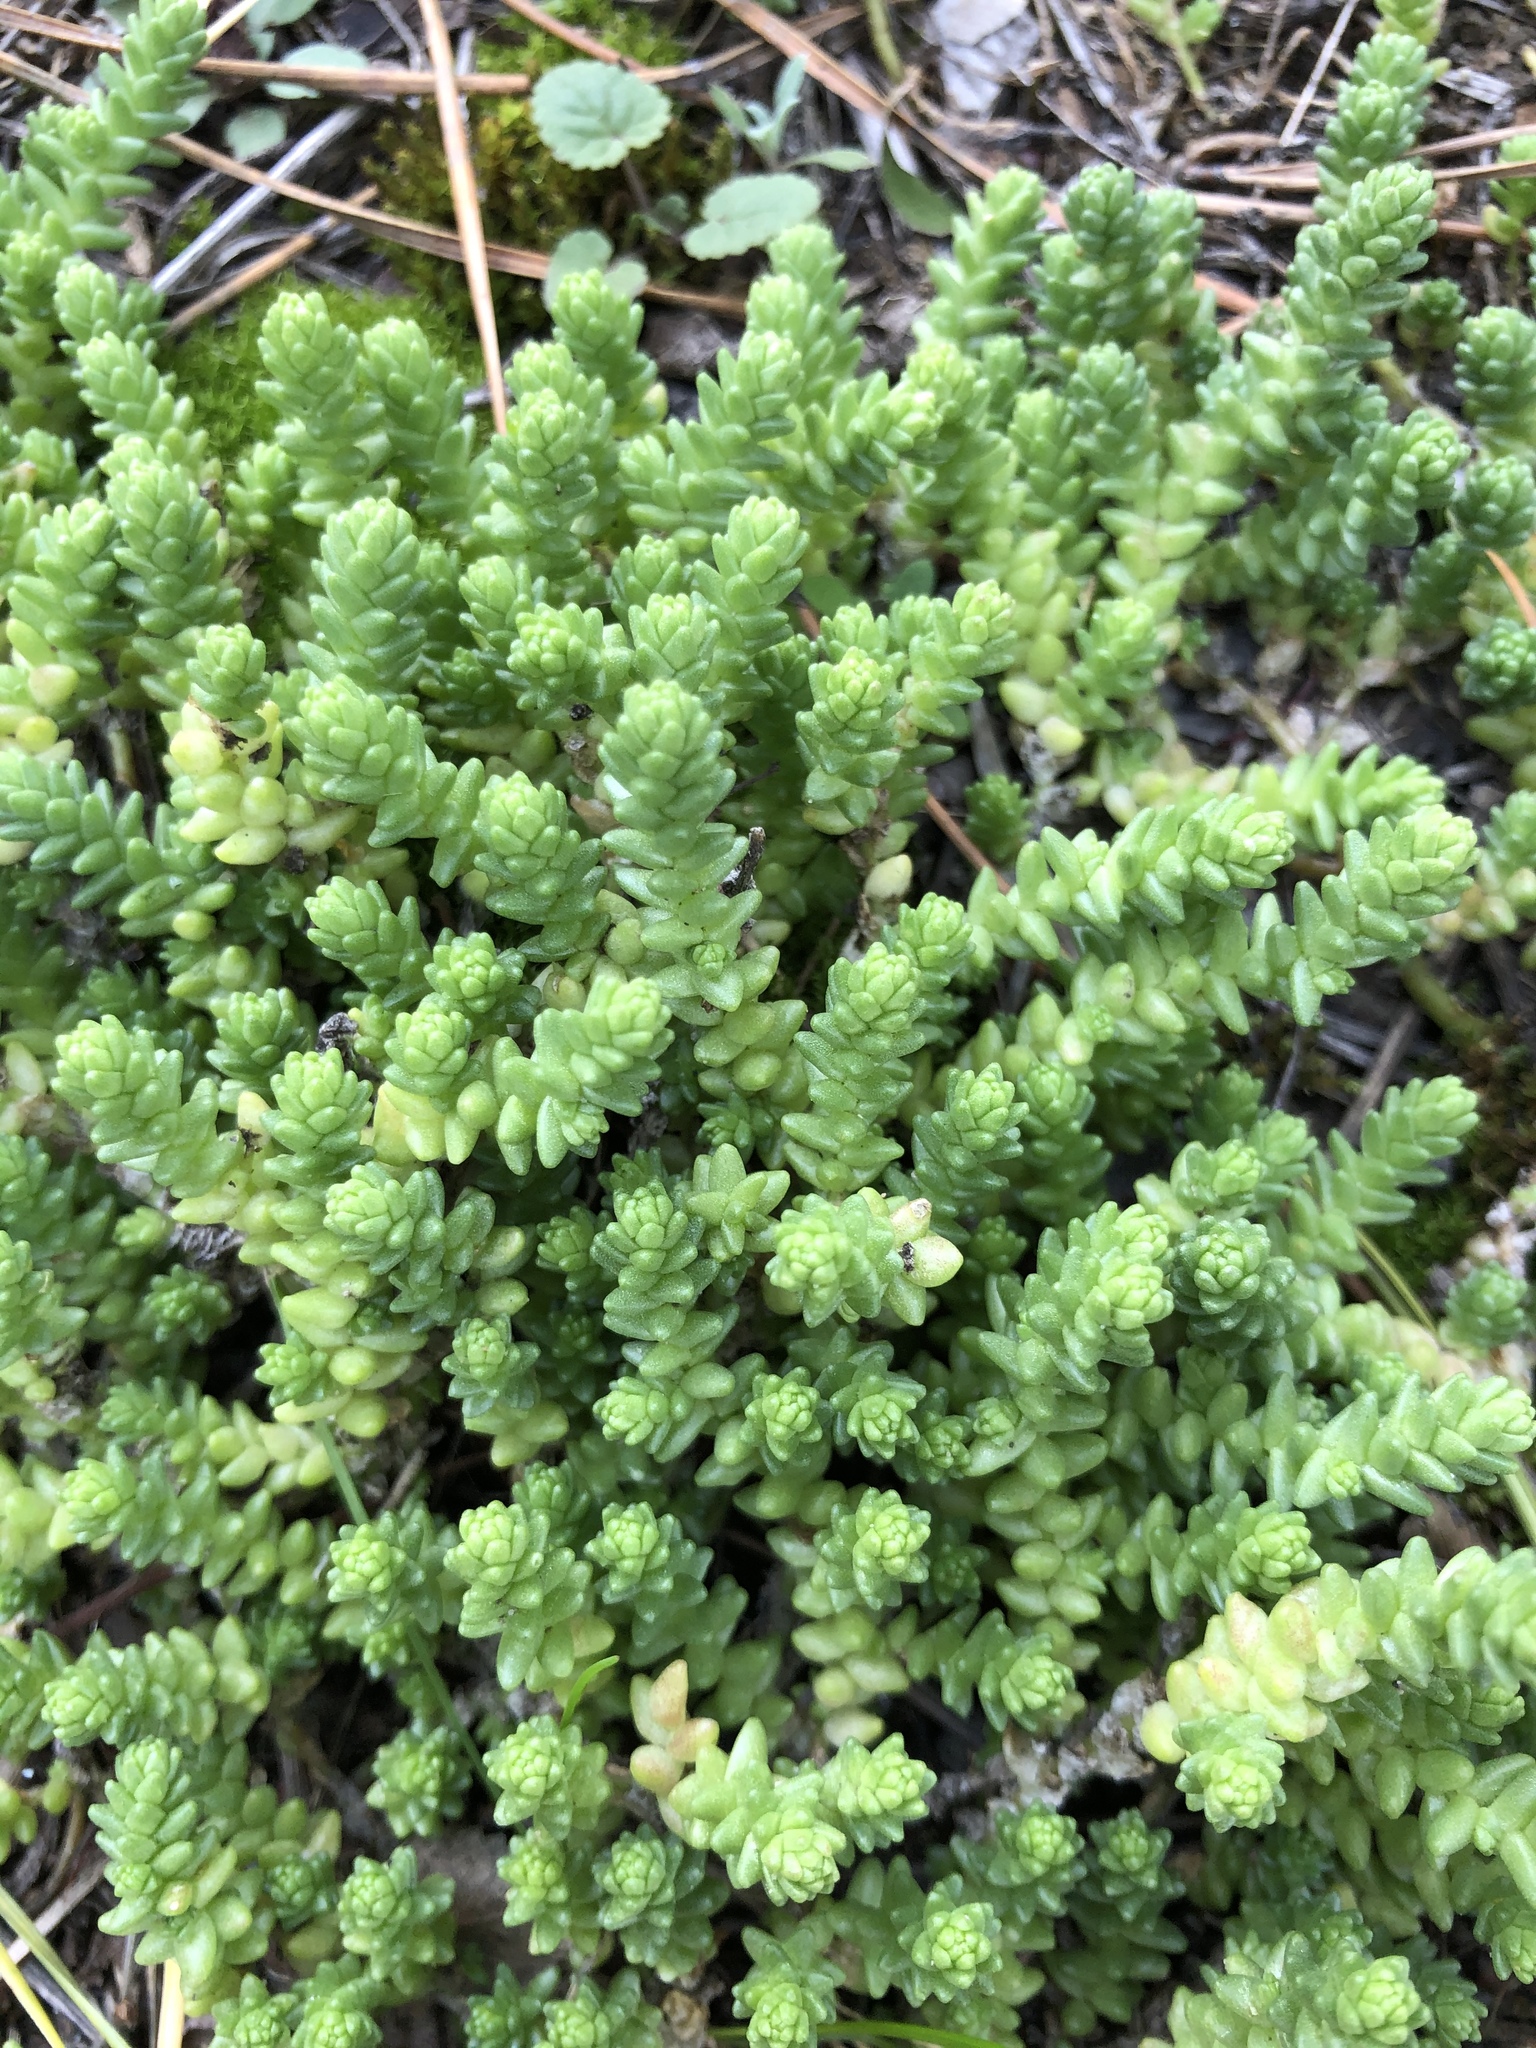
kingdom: Plantae
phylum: Tracheophyta
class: Magnoliopsida
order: Saxifragales
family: Crassulaceae
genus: Sedum
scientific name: Sedum acre
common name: Biting stonecrop
